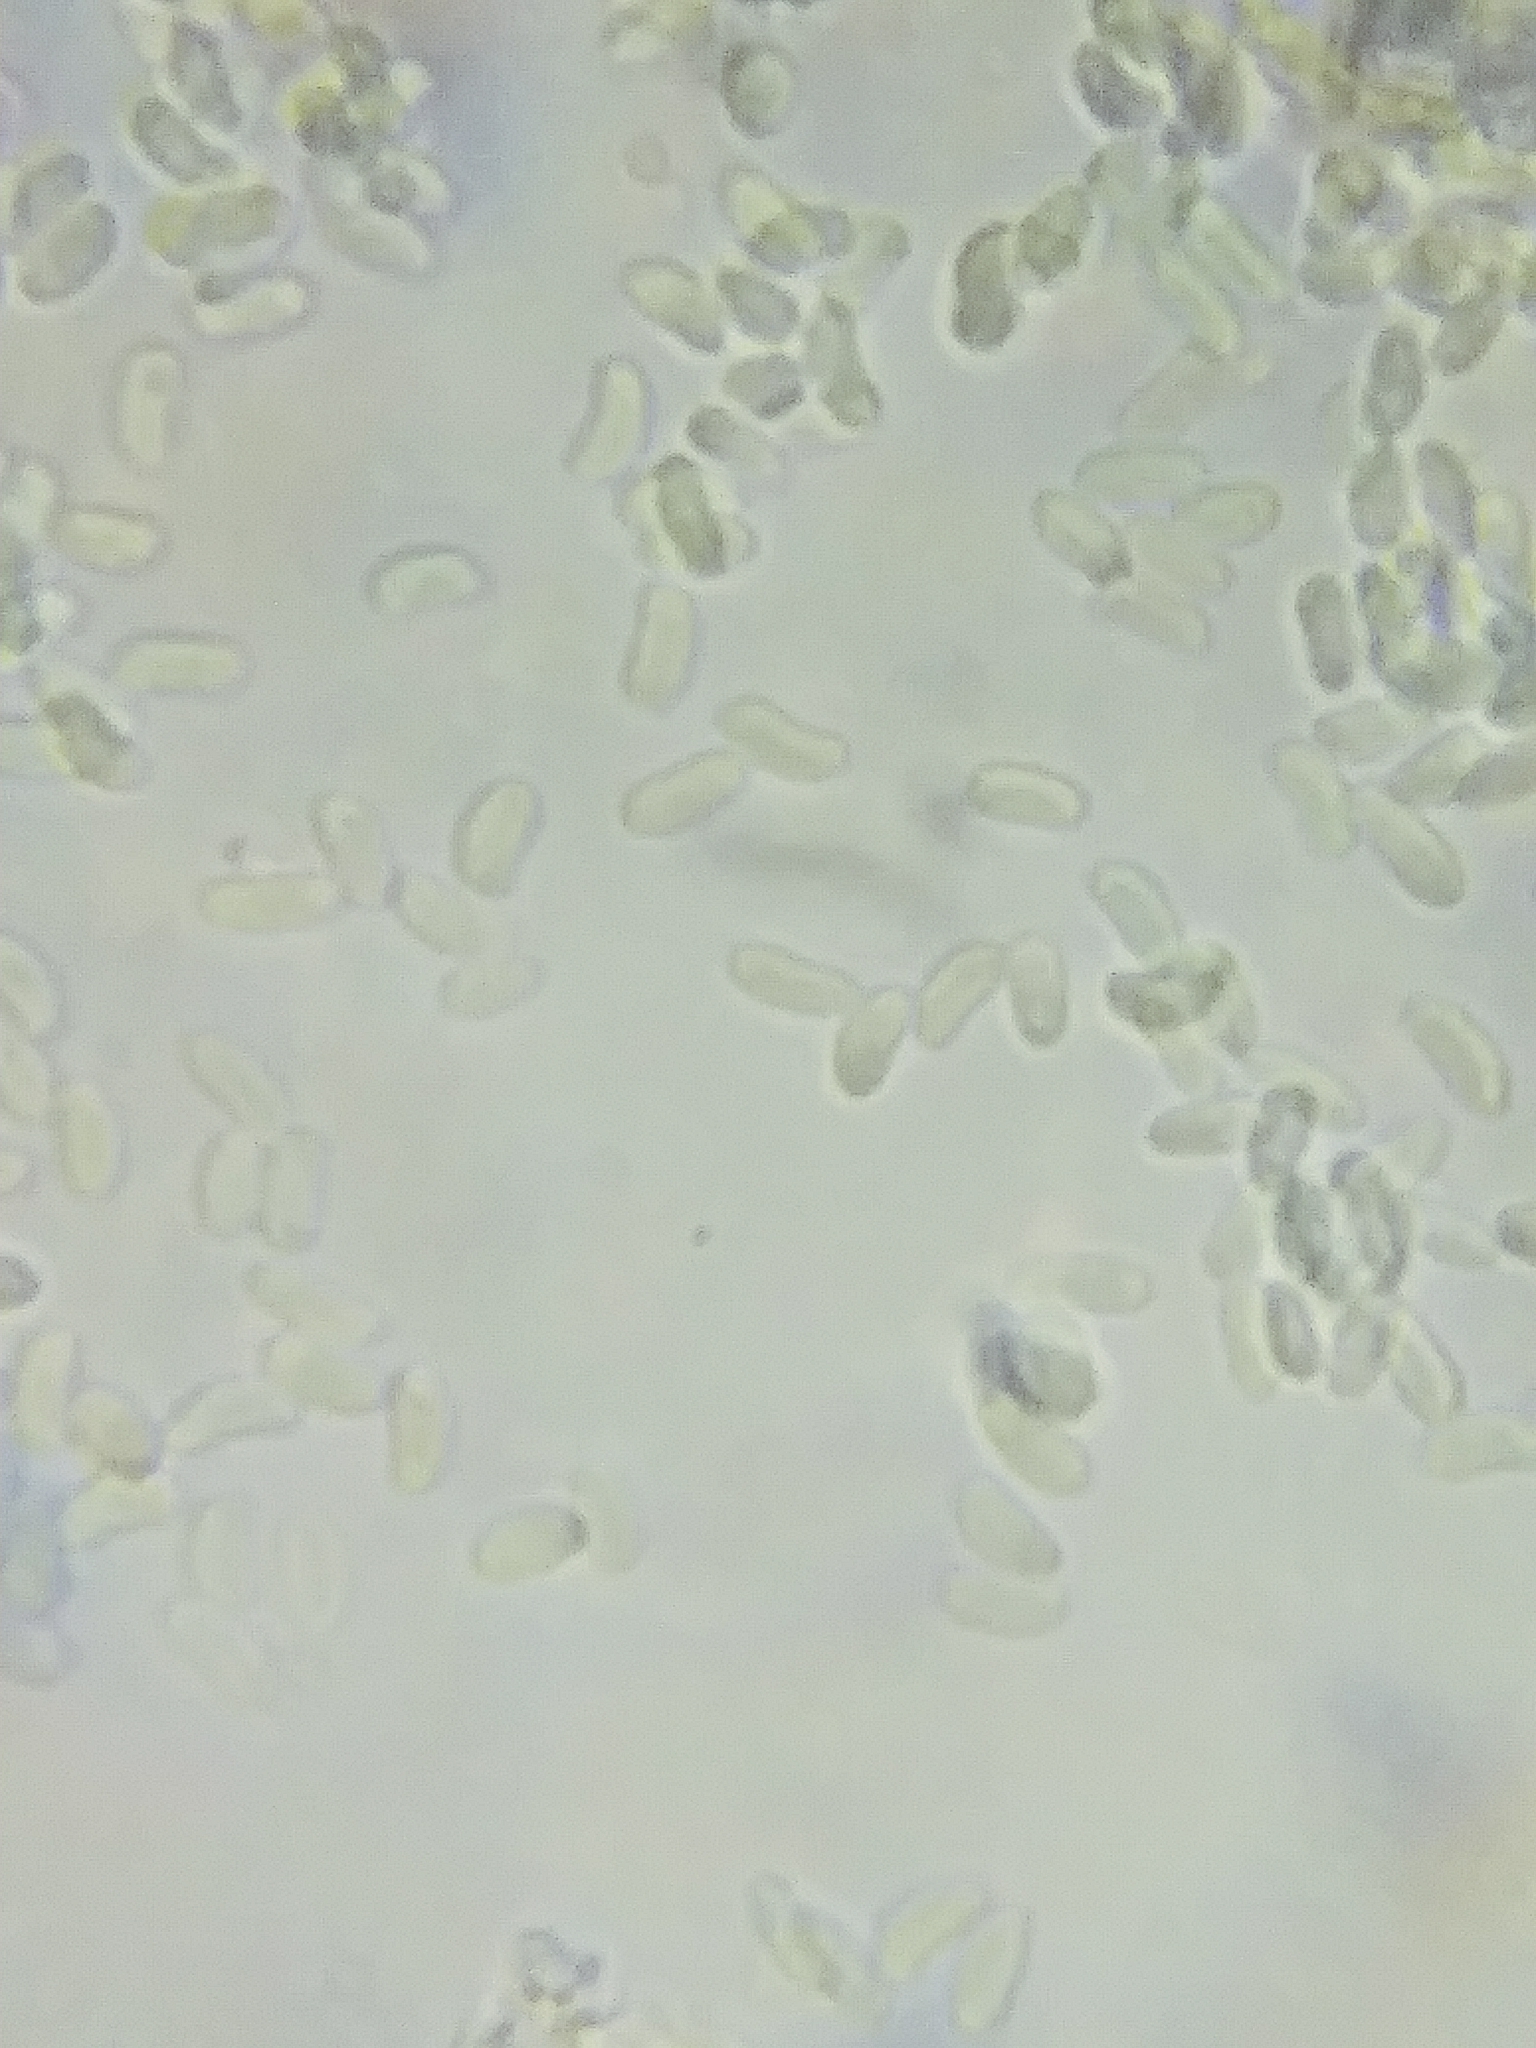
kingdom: Fungi
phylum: Ascomycota
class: Sordariomycetes
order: Hypocreales
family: Cordycipitaceae
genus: Cordyceps
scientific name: Cordyceps tenuipes
